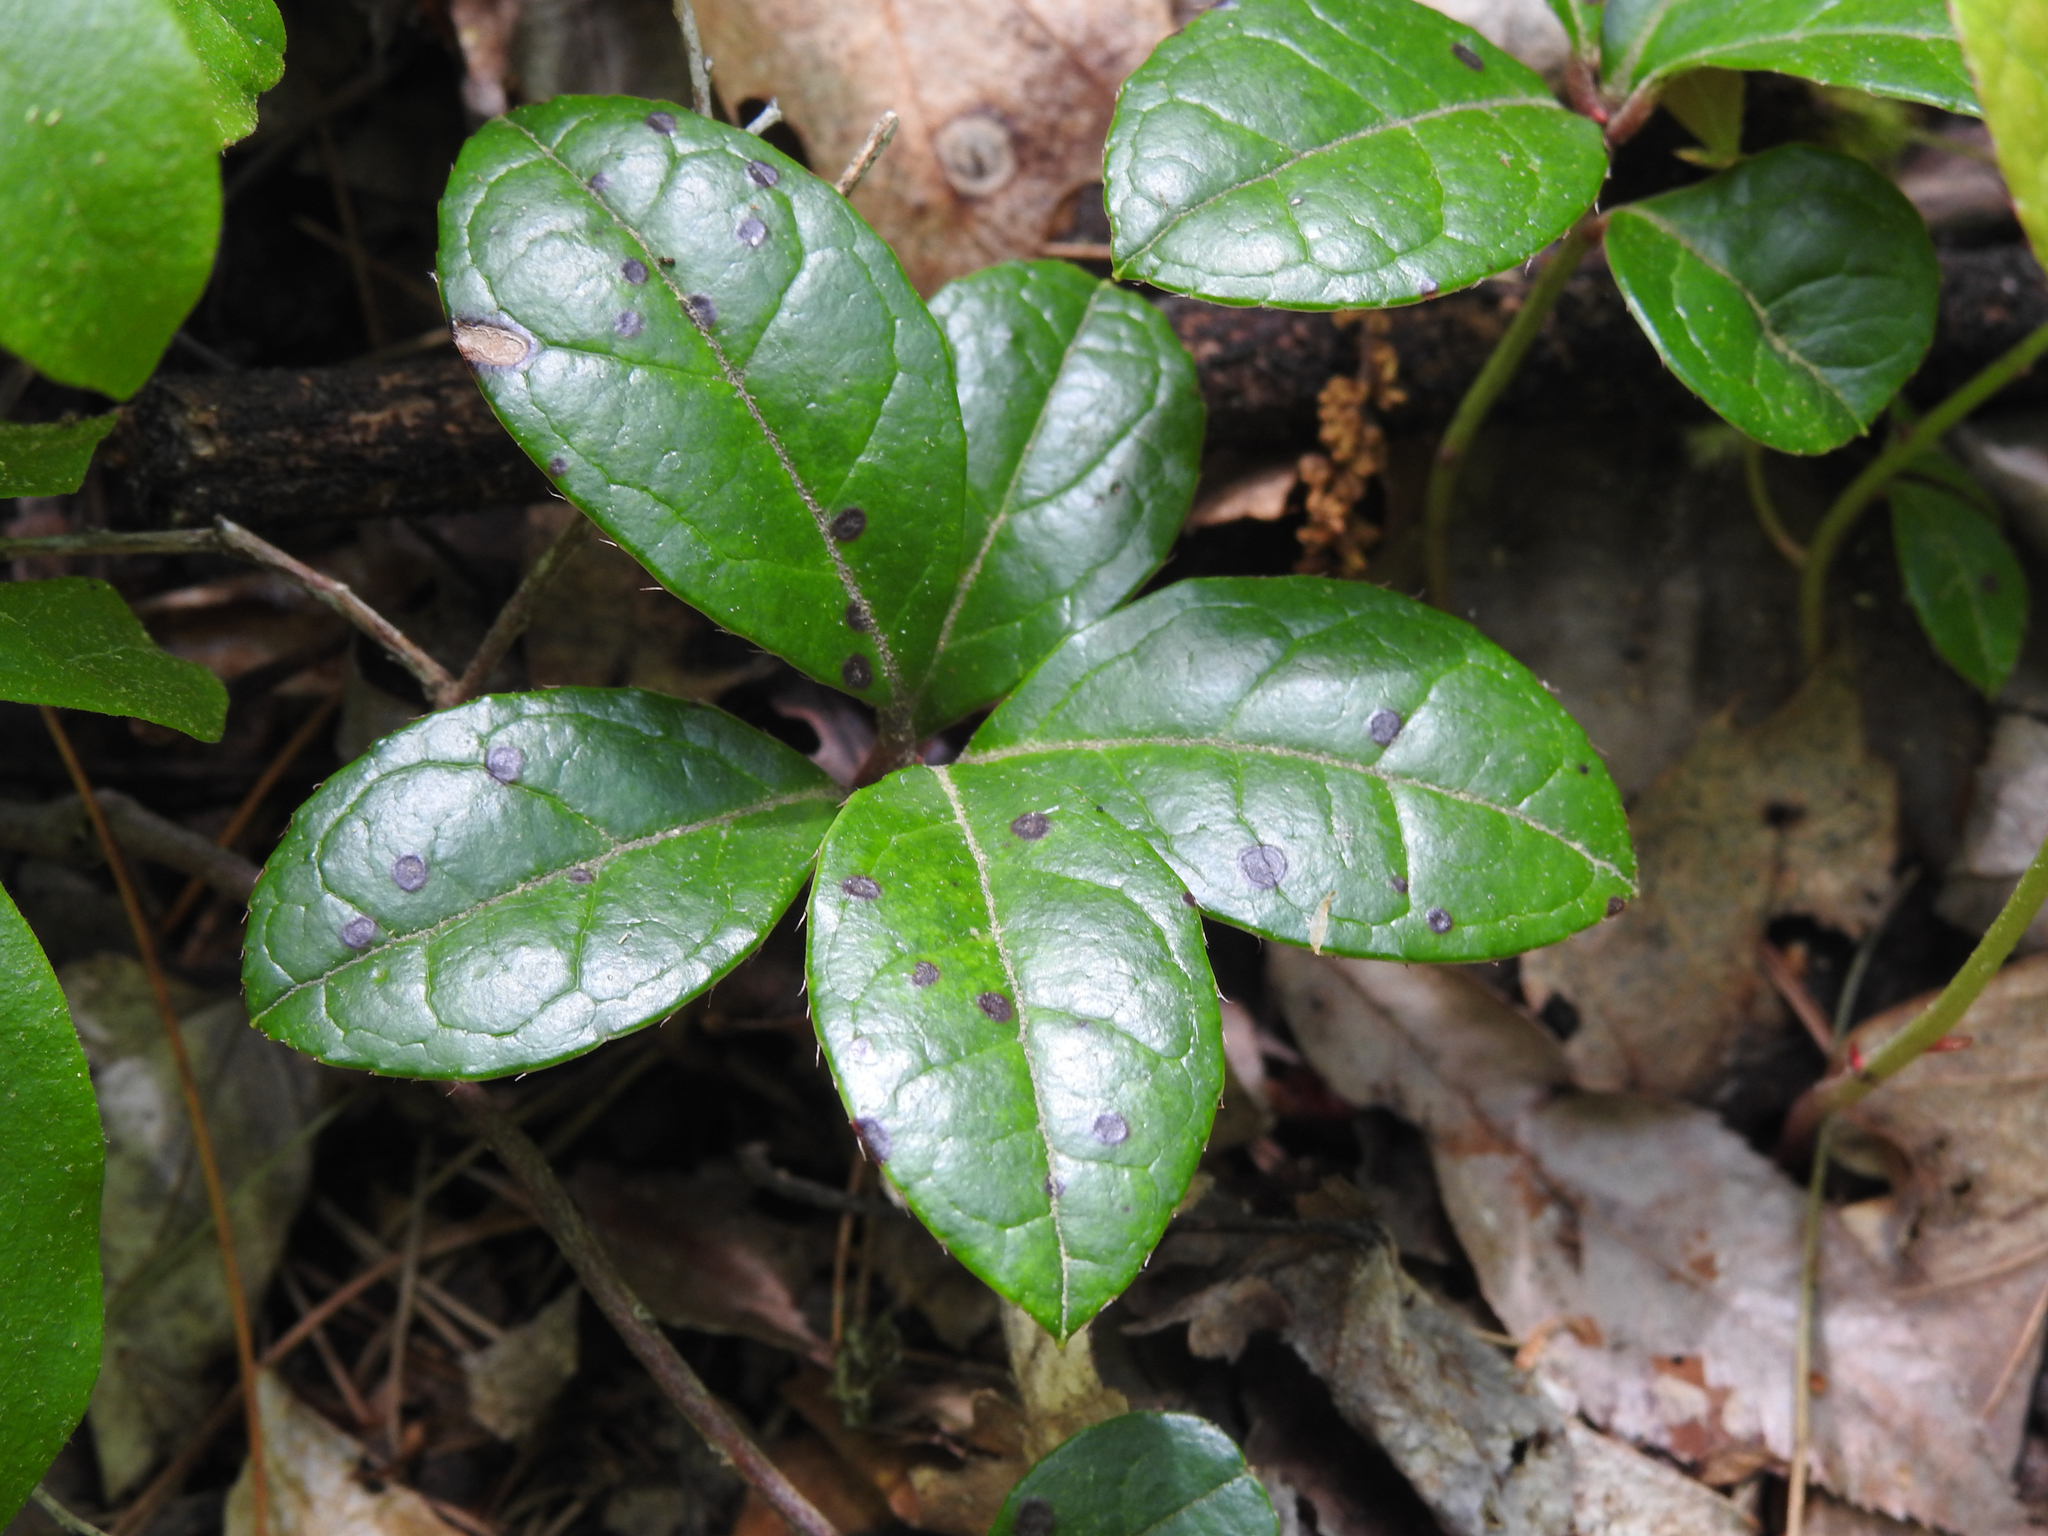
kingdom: Plantae
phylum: Tracheophyta
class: Magnoliopsida
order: Ericales
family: Ericaceae
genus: Gaultheria
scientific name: Gaultheria procumbens
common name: Checkerberry
